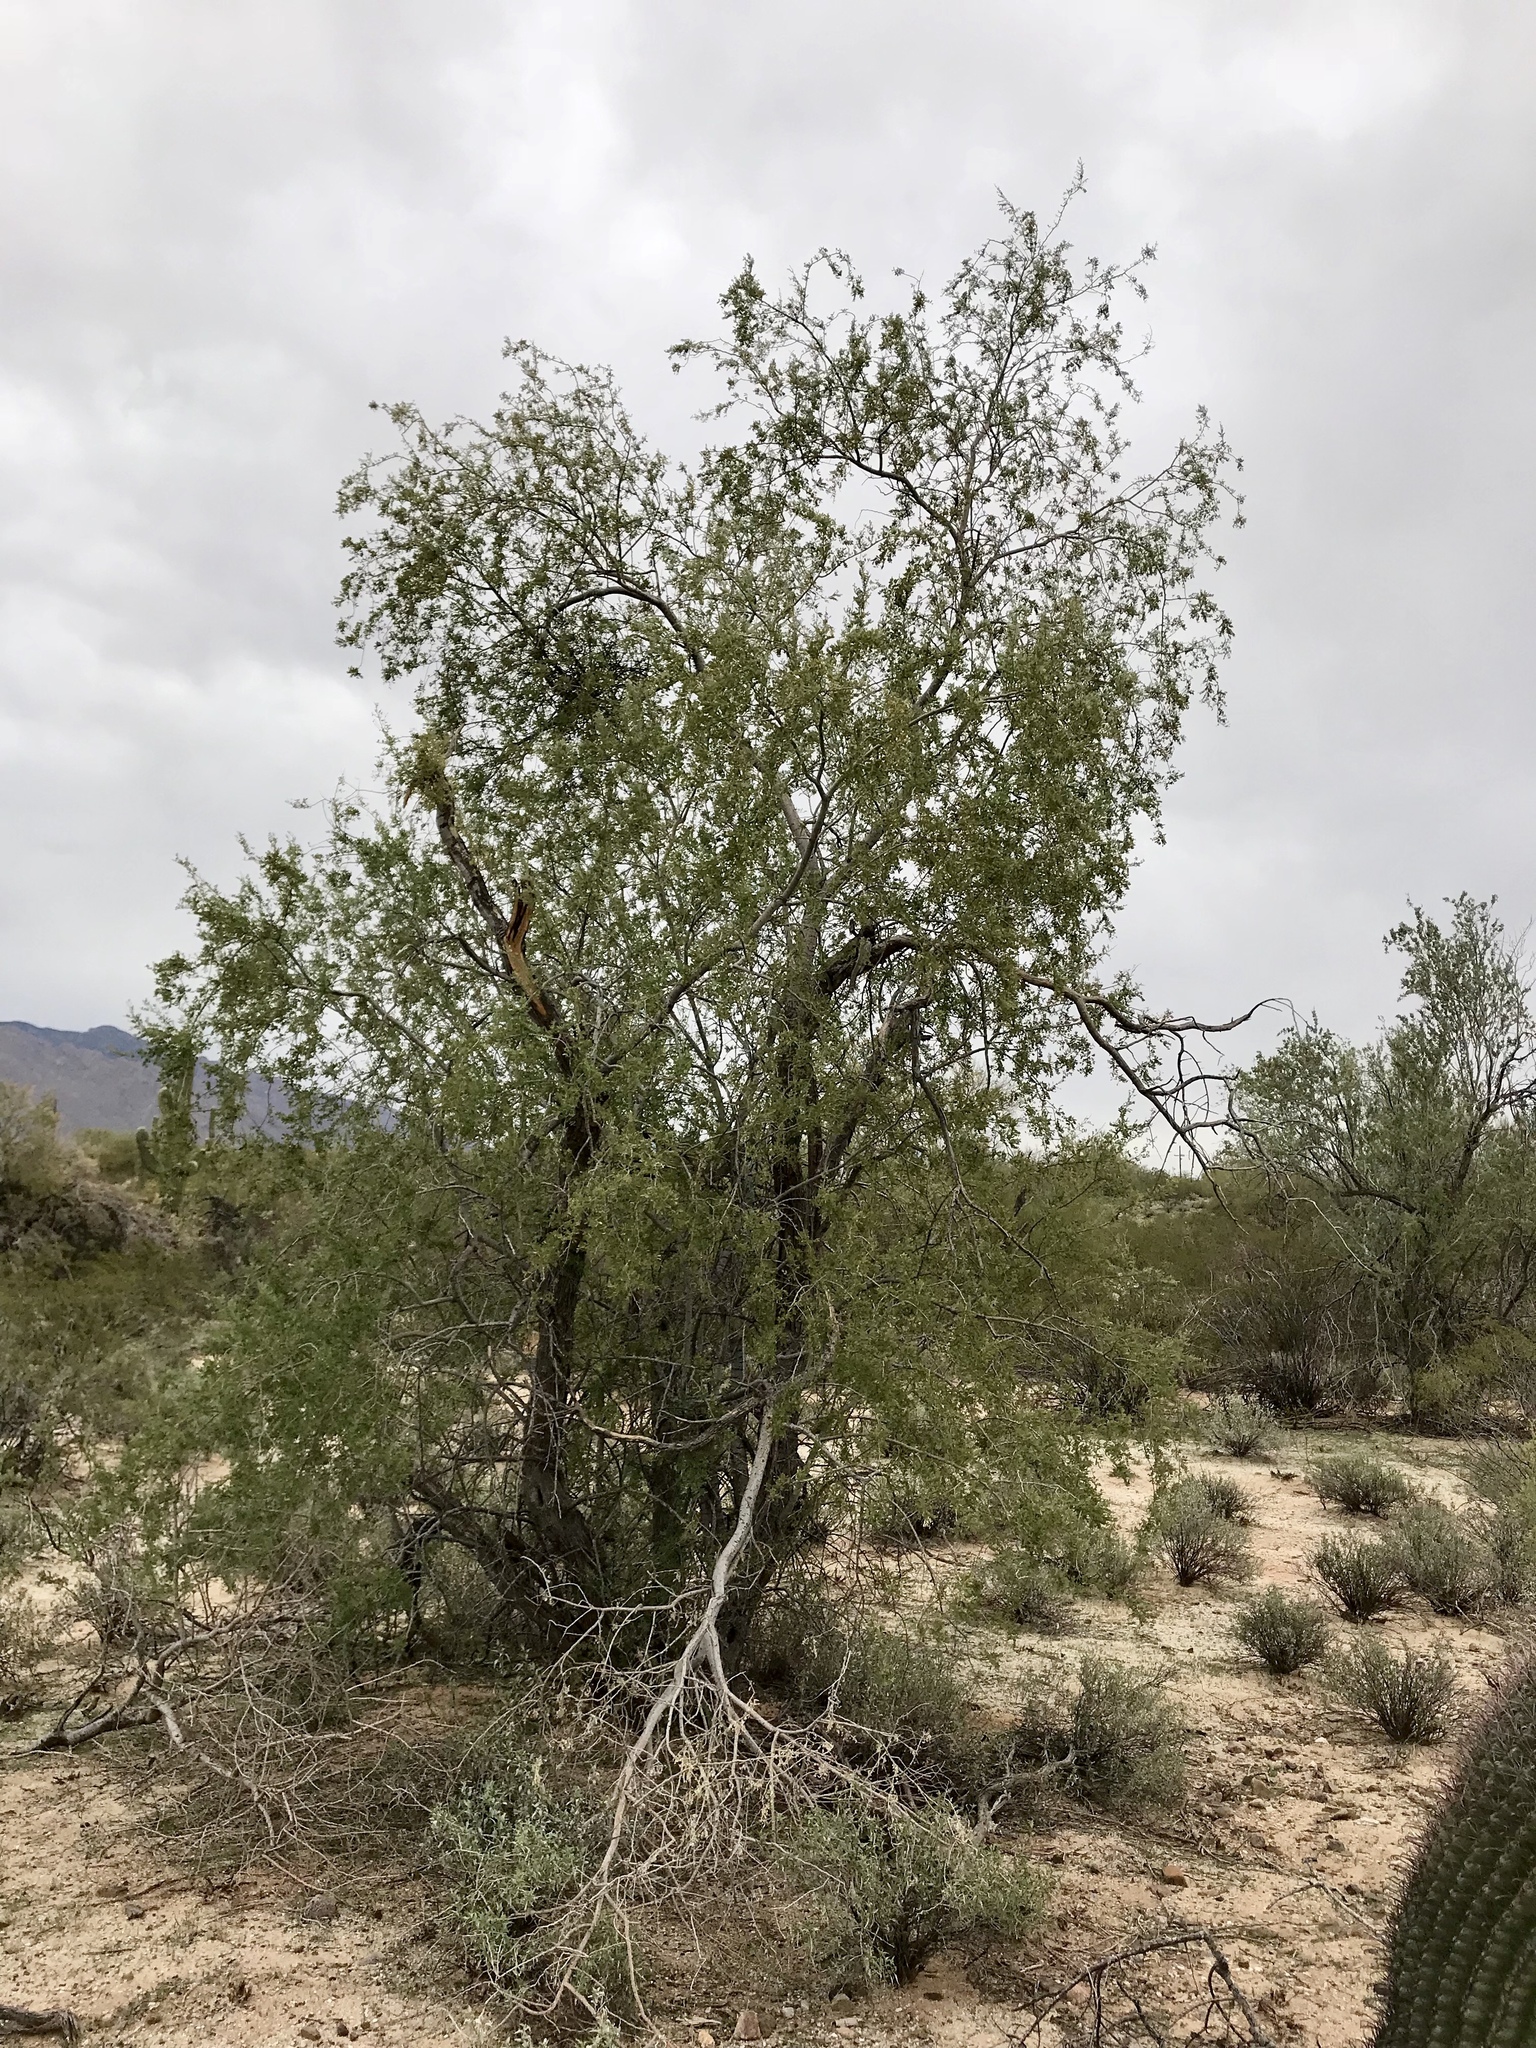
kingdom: Plantae
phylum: Tracheophyta
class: Magnoliopsida
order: Fabales
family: Fabaceae
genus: Olneya
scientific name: Olneya tesota
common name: Desert ironwood
